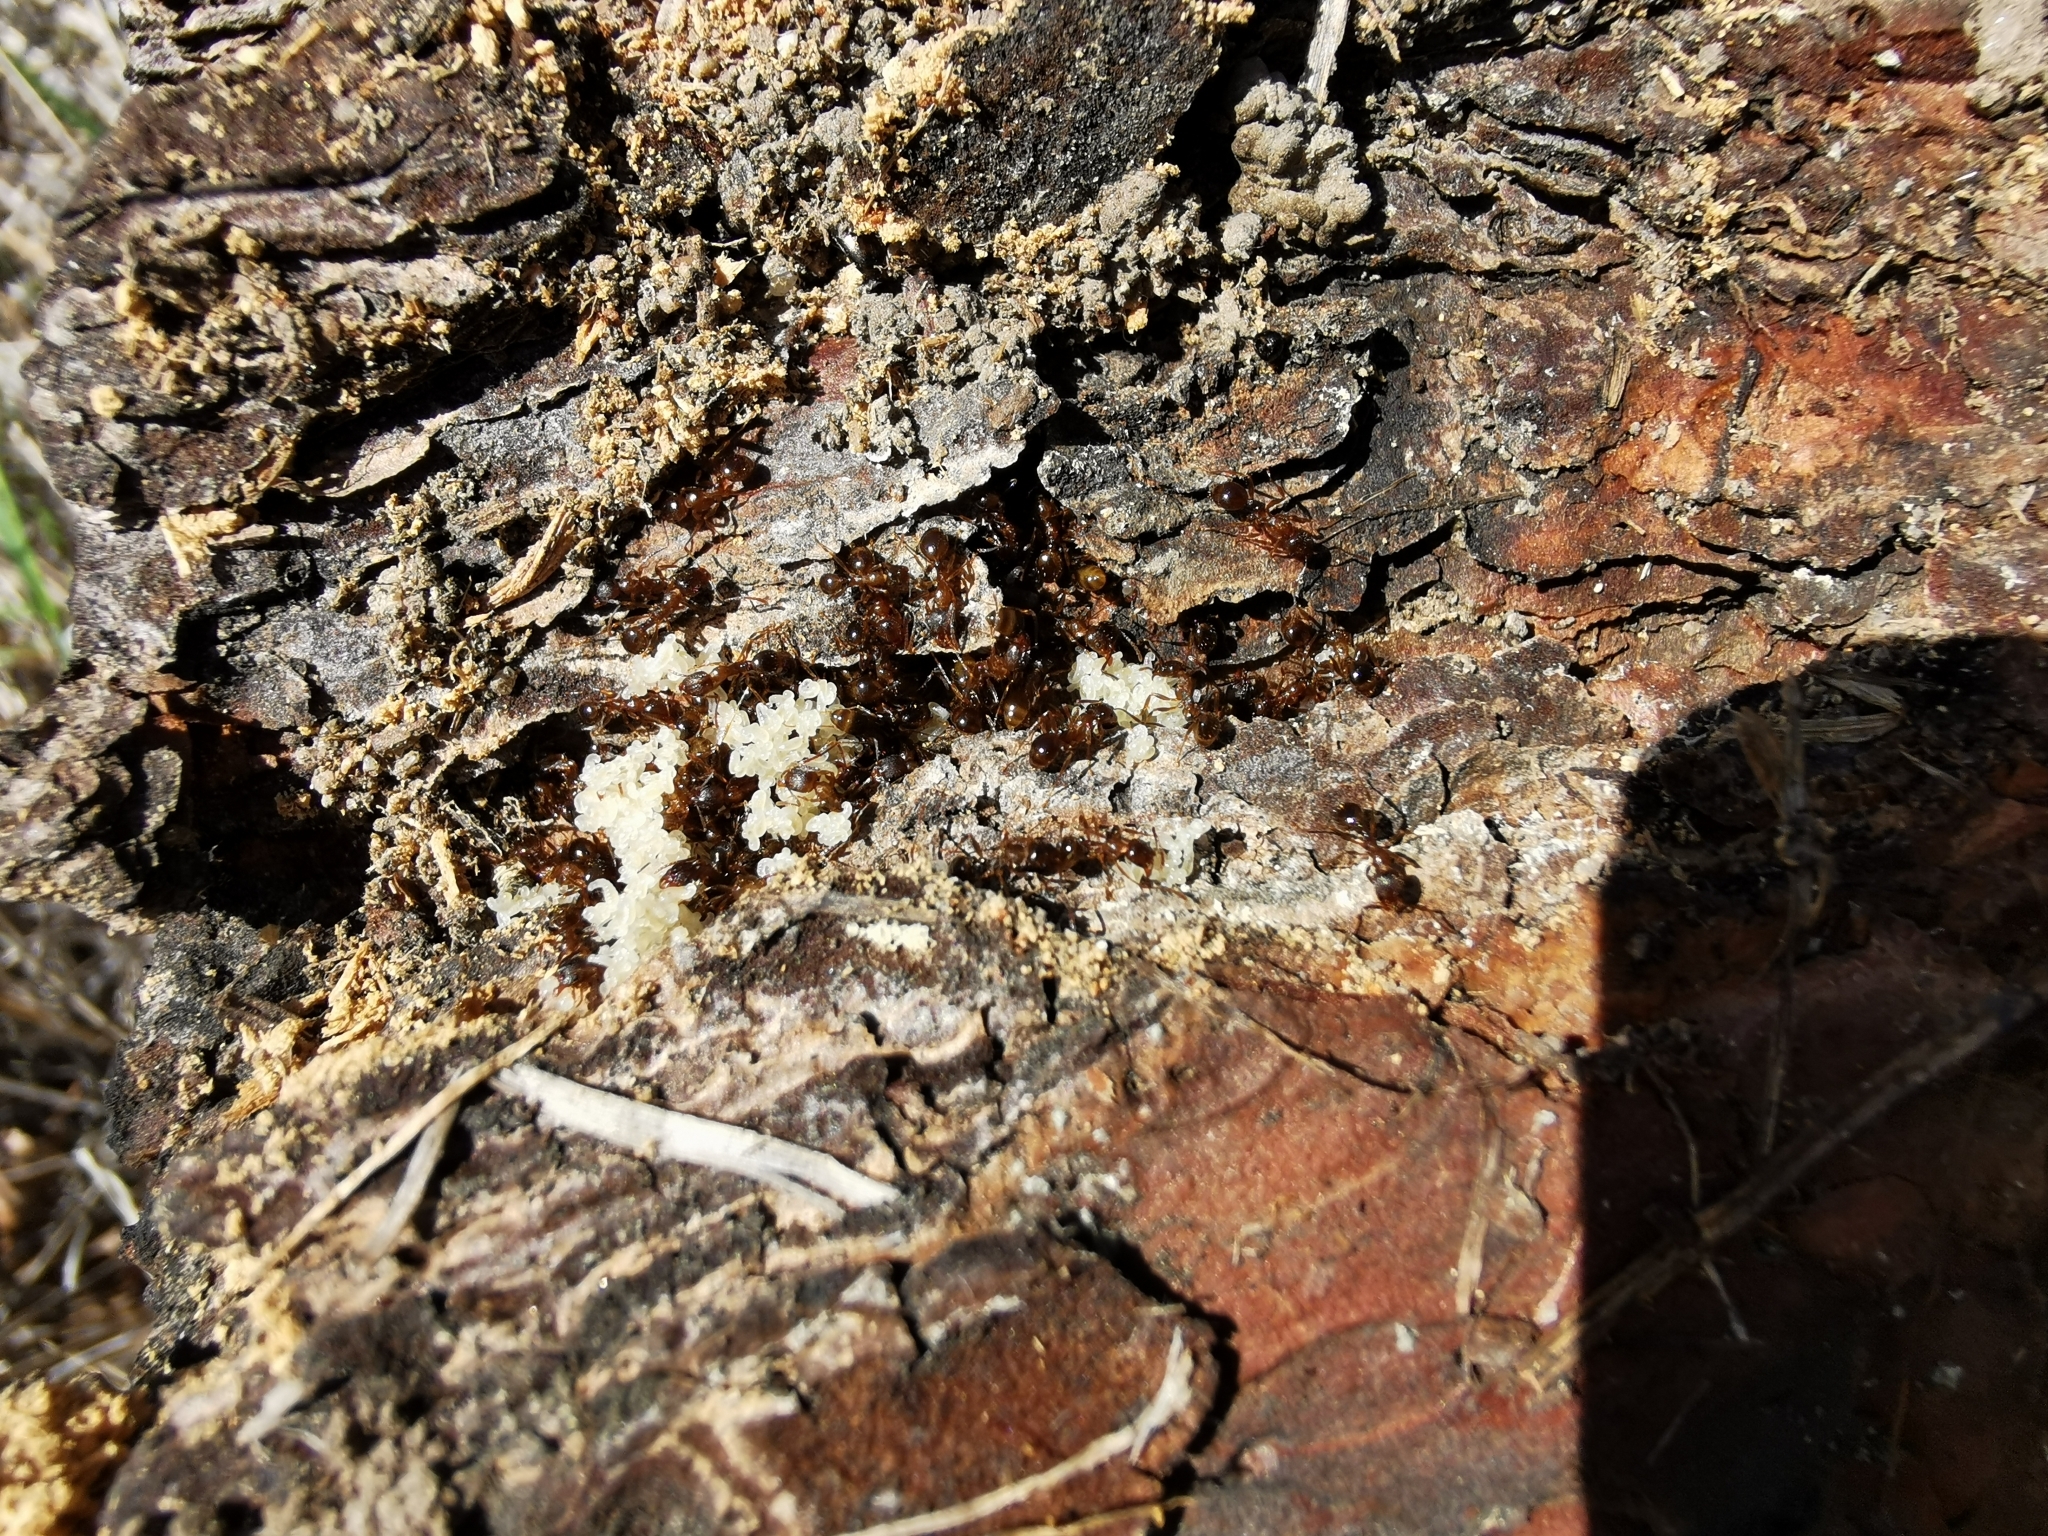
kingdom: Animalia
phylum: Arthropoda
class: Insecta
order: Hymenoptera
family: Formicidae
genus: Aphaenogaster
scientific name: Aphaenogaster occidentalis
